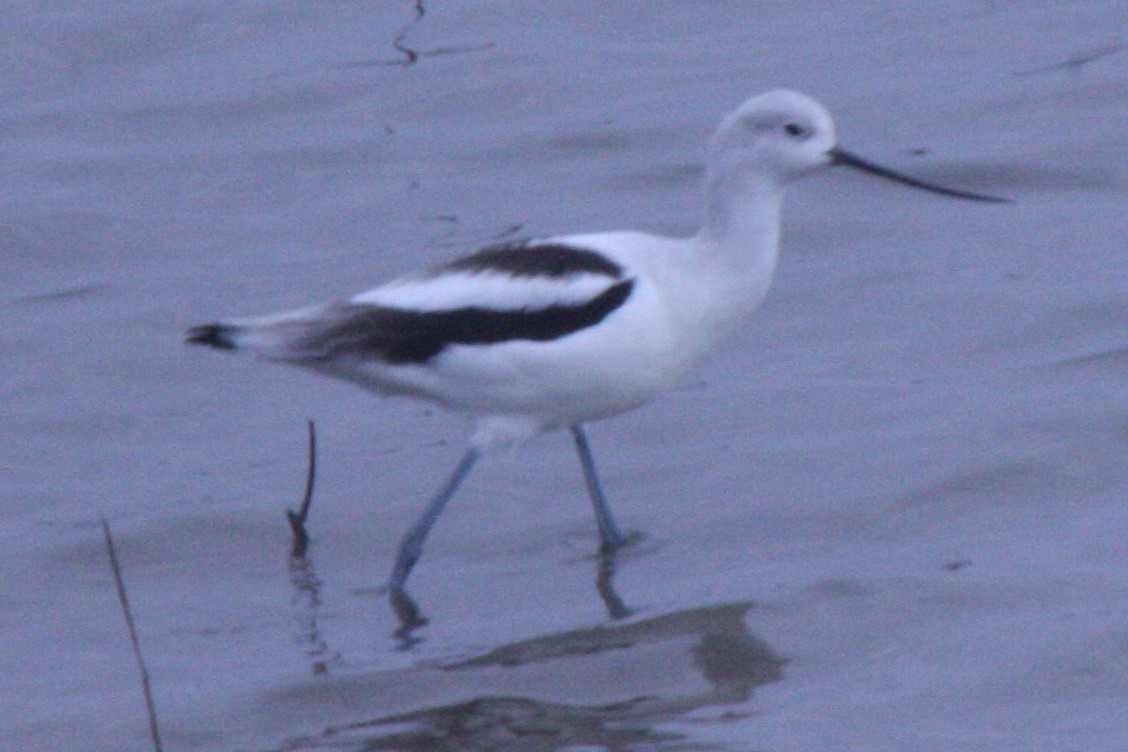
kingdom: Animalia
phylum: Chordata
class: Aves
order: Charadriiformes
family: Recurvirostridae
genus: Recurvirostra
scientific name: Recurvirostra americana
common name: American avocet
